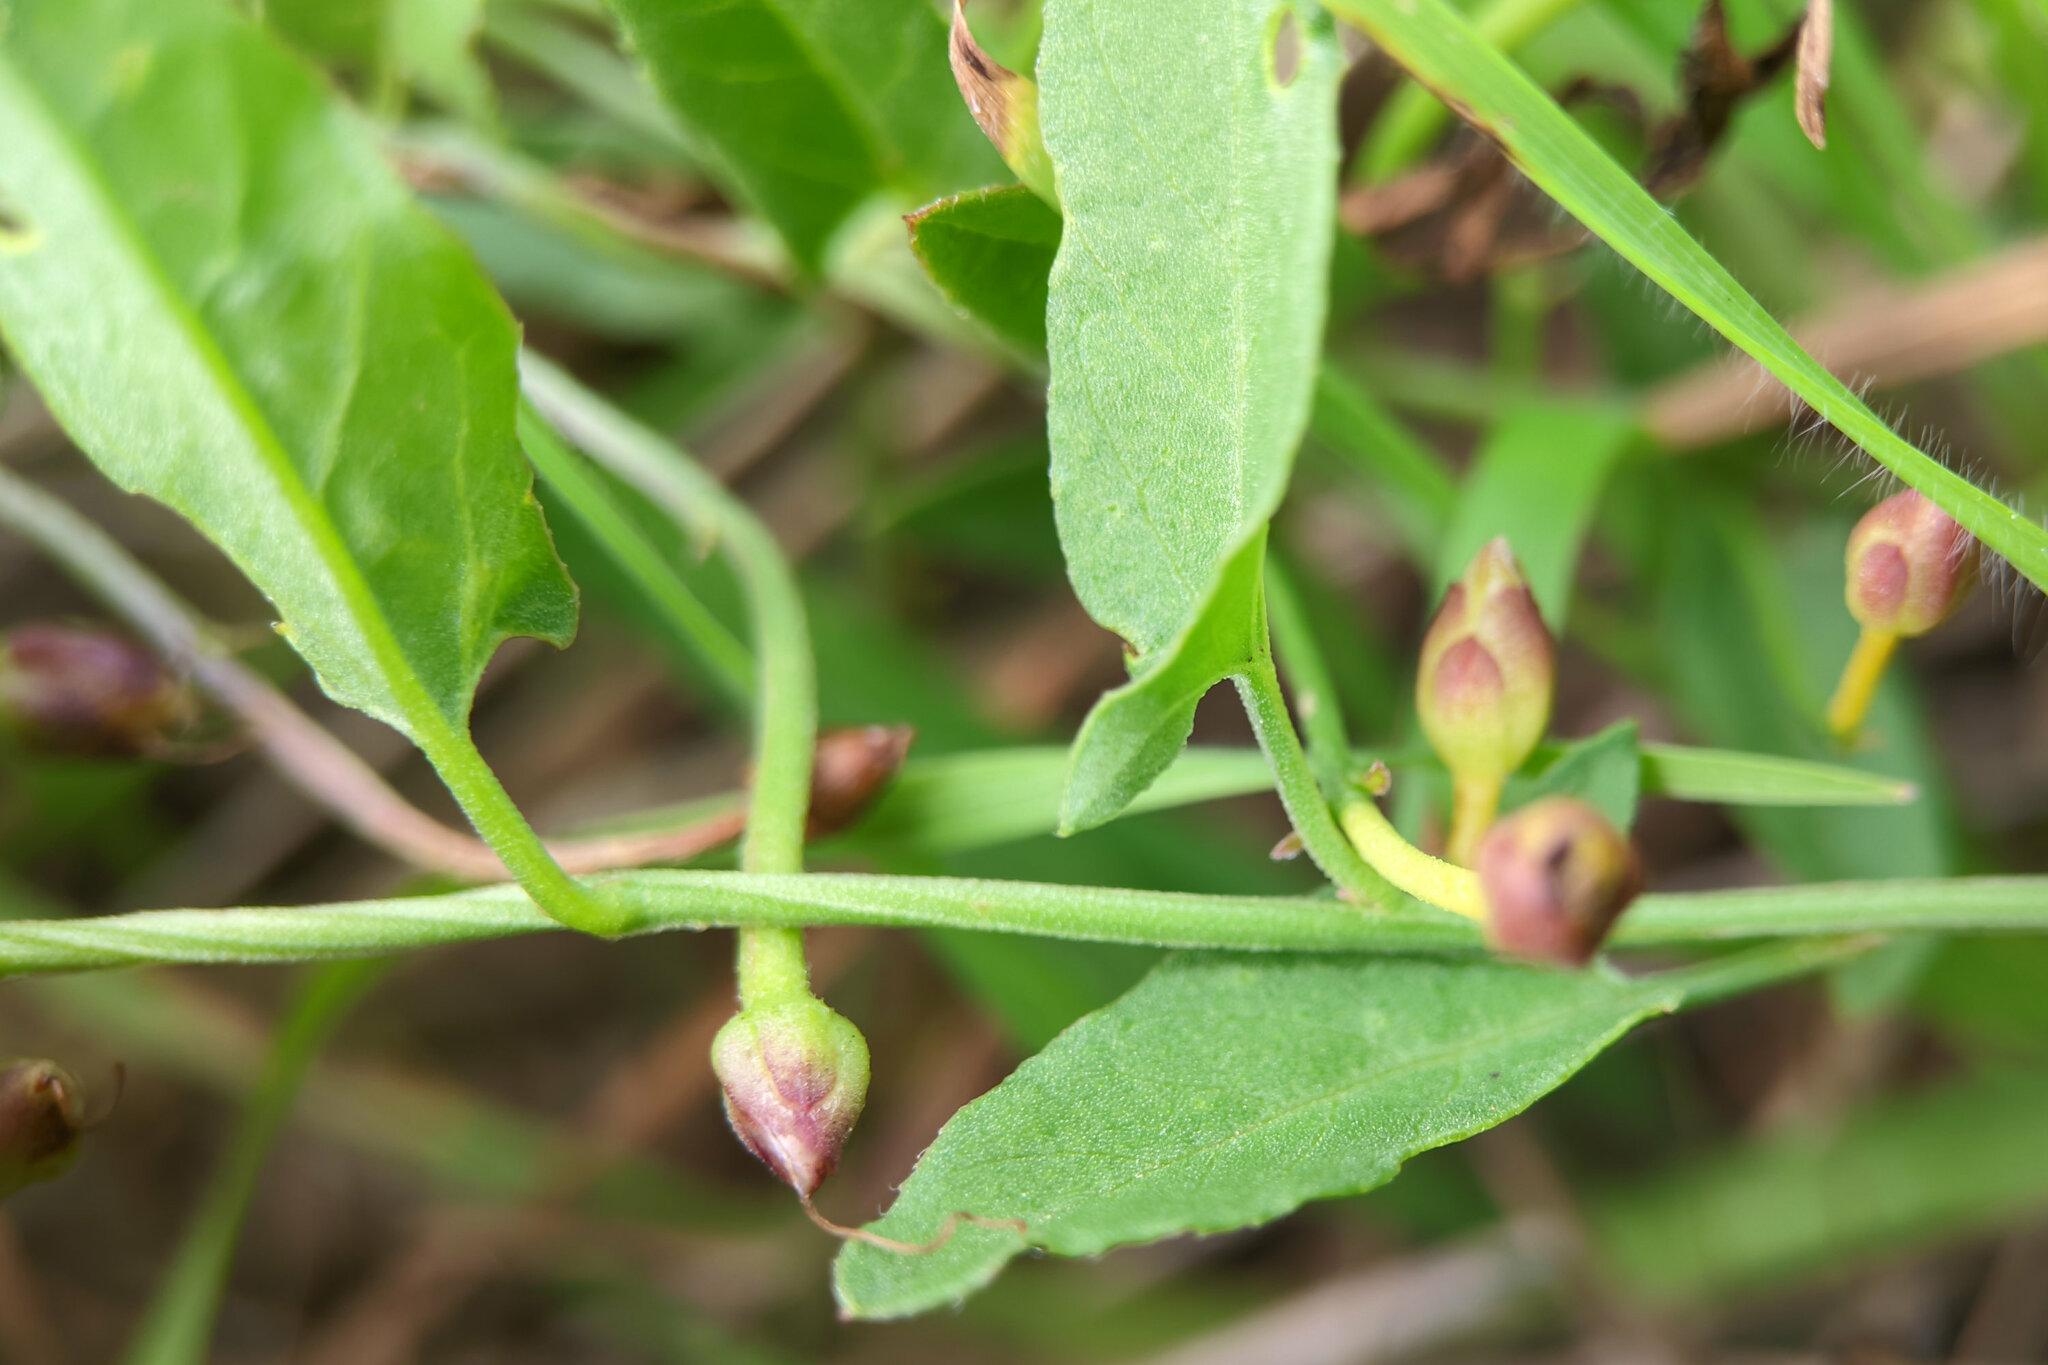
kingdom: Plantae
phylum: Tracheophyta
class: Magnoliopsida
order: Solanales
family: Convolvulaceae
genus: Convolvulus
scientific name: Convolvulus arvensis
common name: Field bindweed
